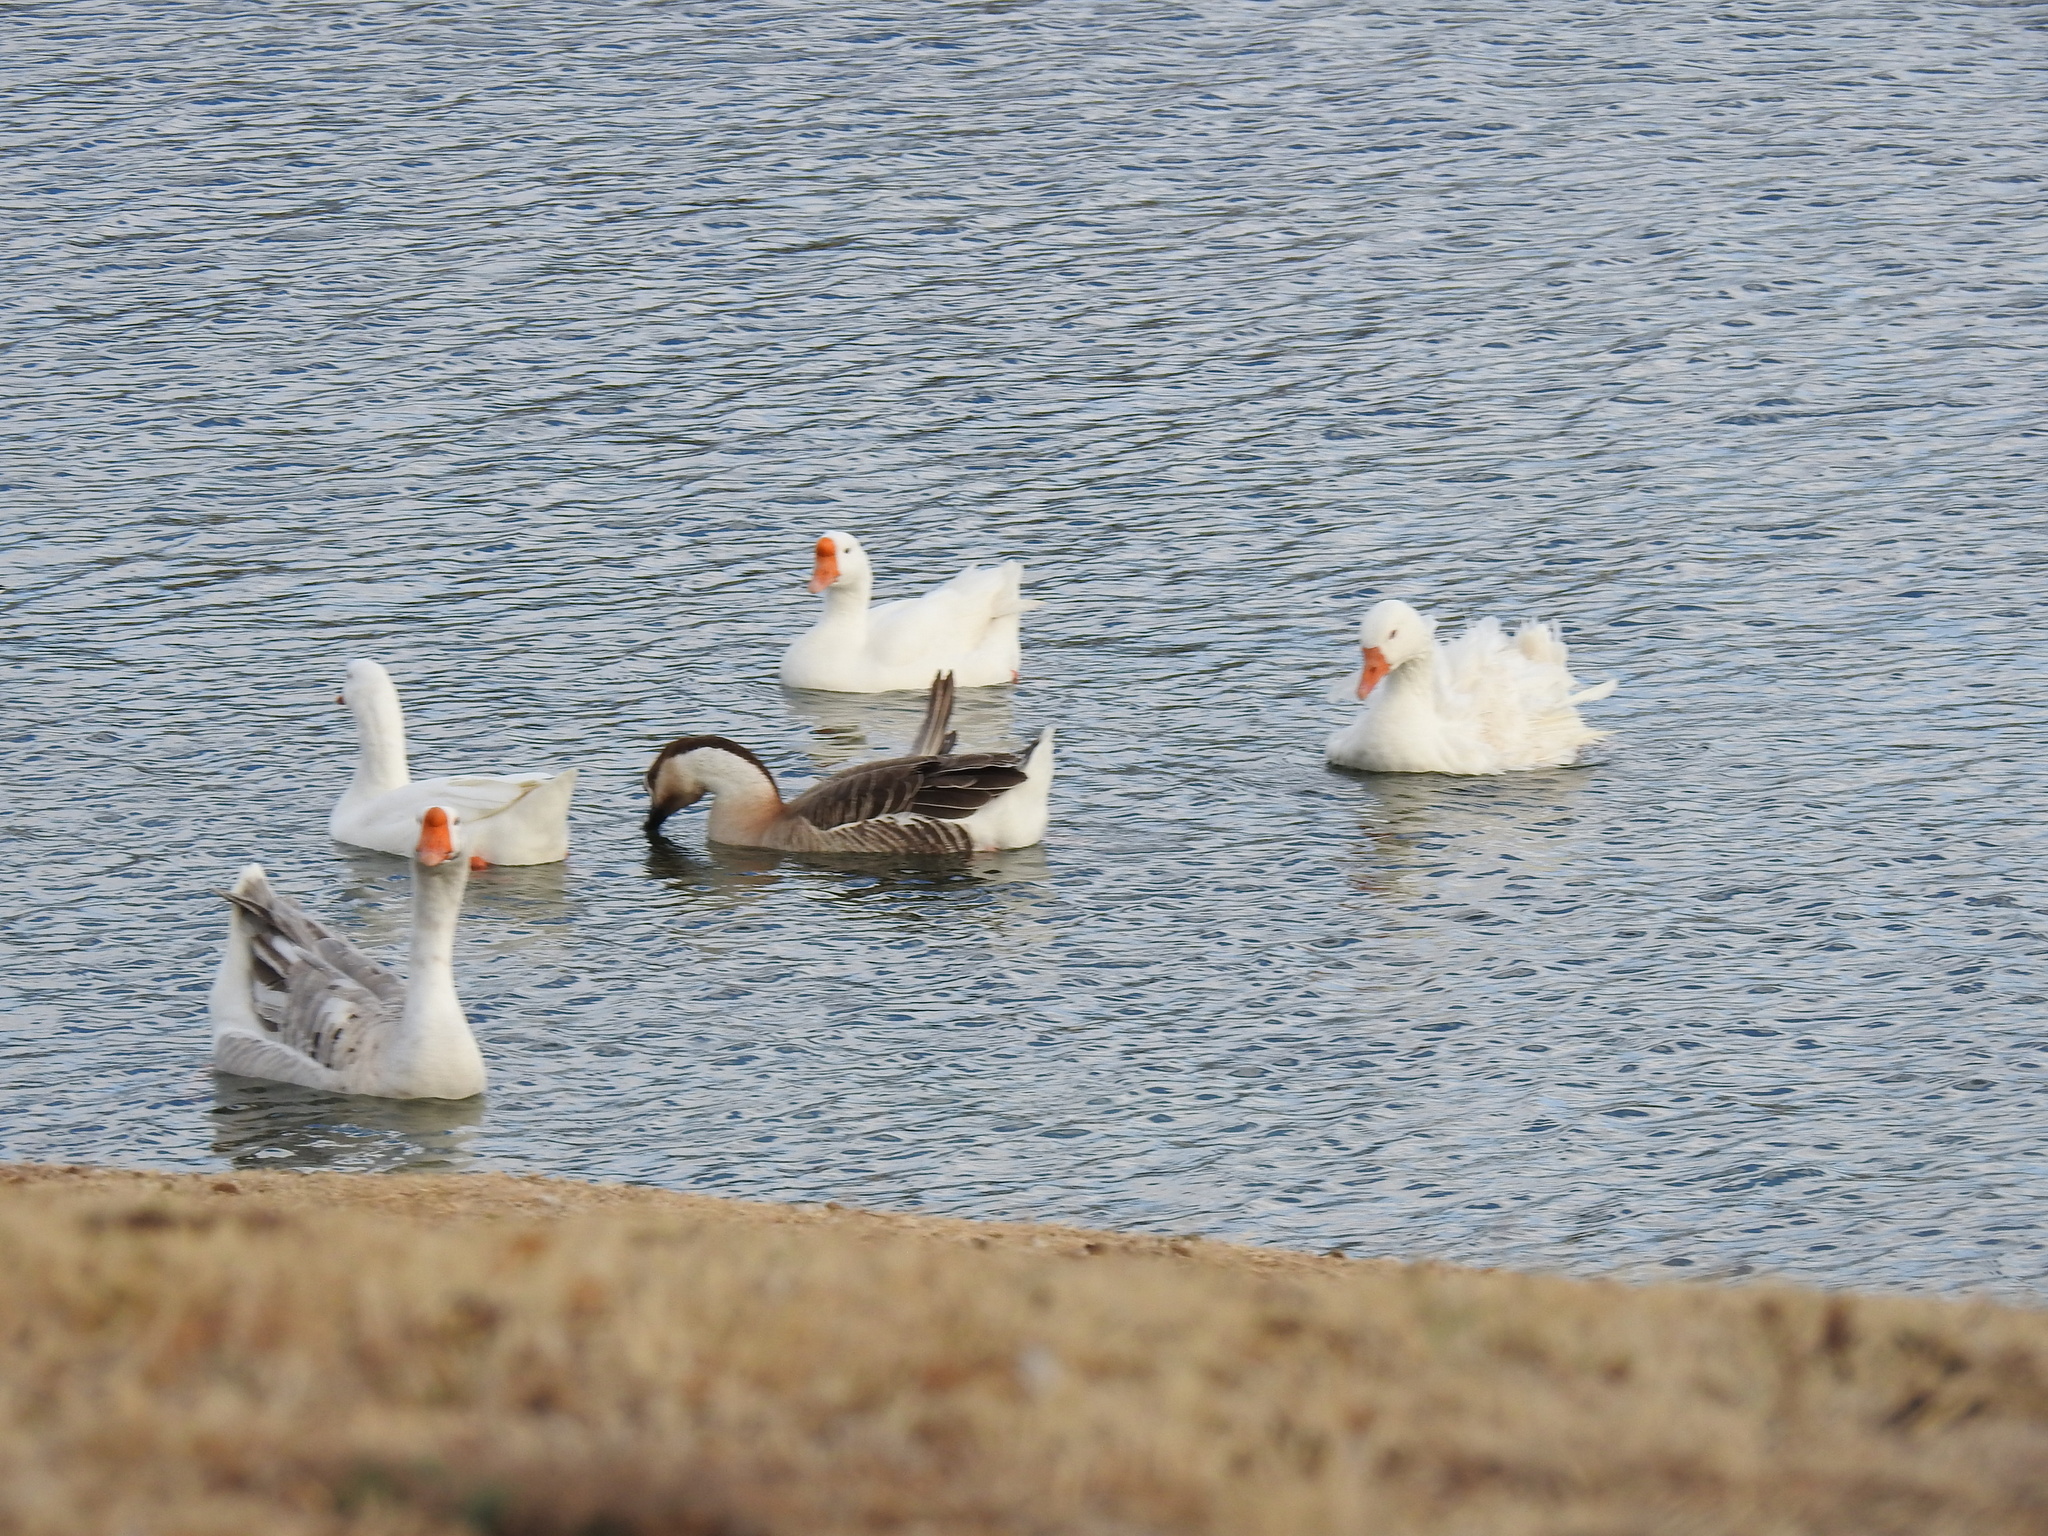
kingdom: Animalia
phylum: Chordata
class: Aves
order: Anseriformes
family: Anatidae
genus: Anser
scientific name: Anser cygnoides
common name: Swan goose
